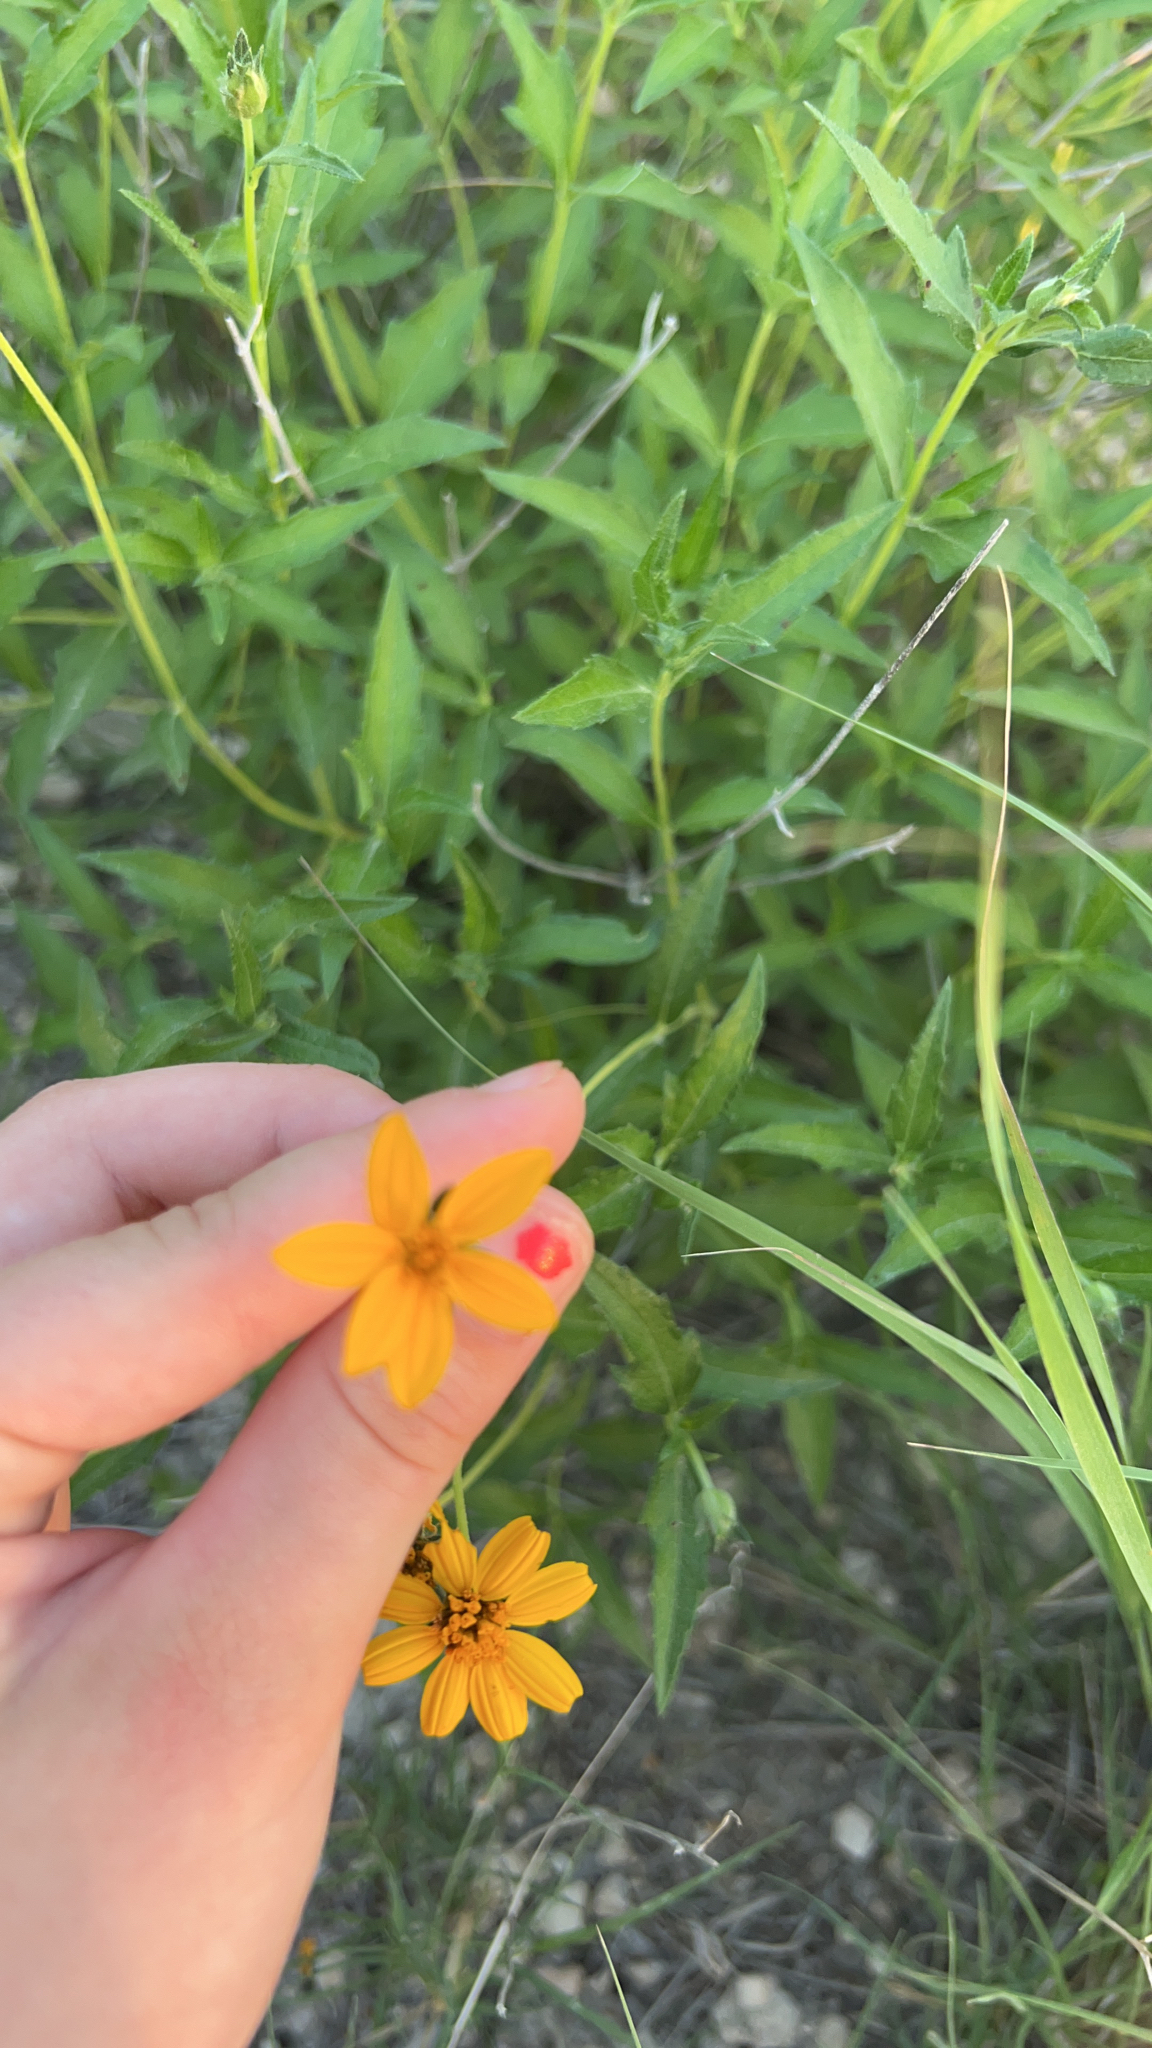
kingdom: Plantae
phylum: Tracheophyta
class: Magnoliopsida
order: Asterales
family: Asteraceae
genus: Wedelia
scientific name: Wedelia acapulcensis
